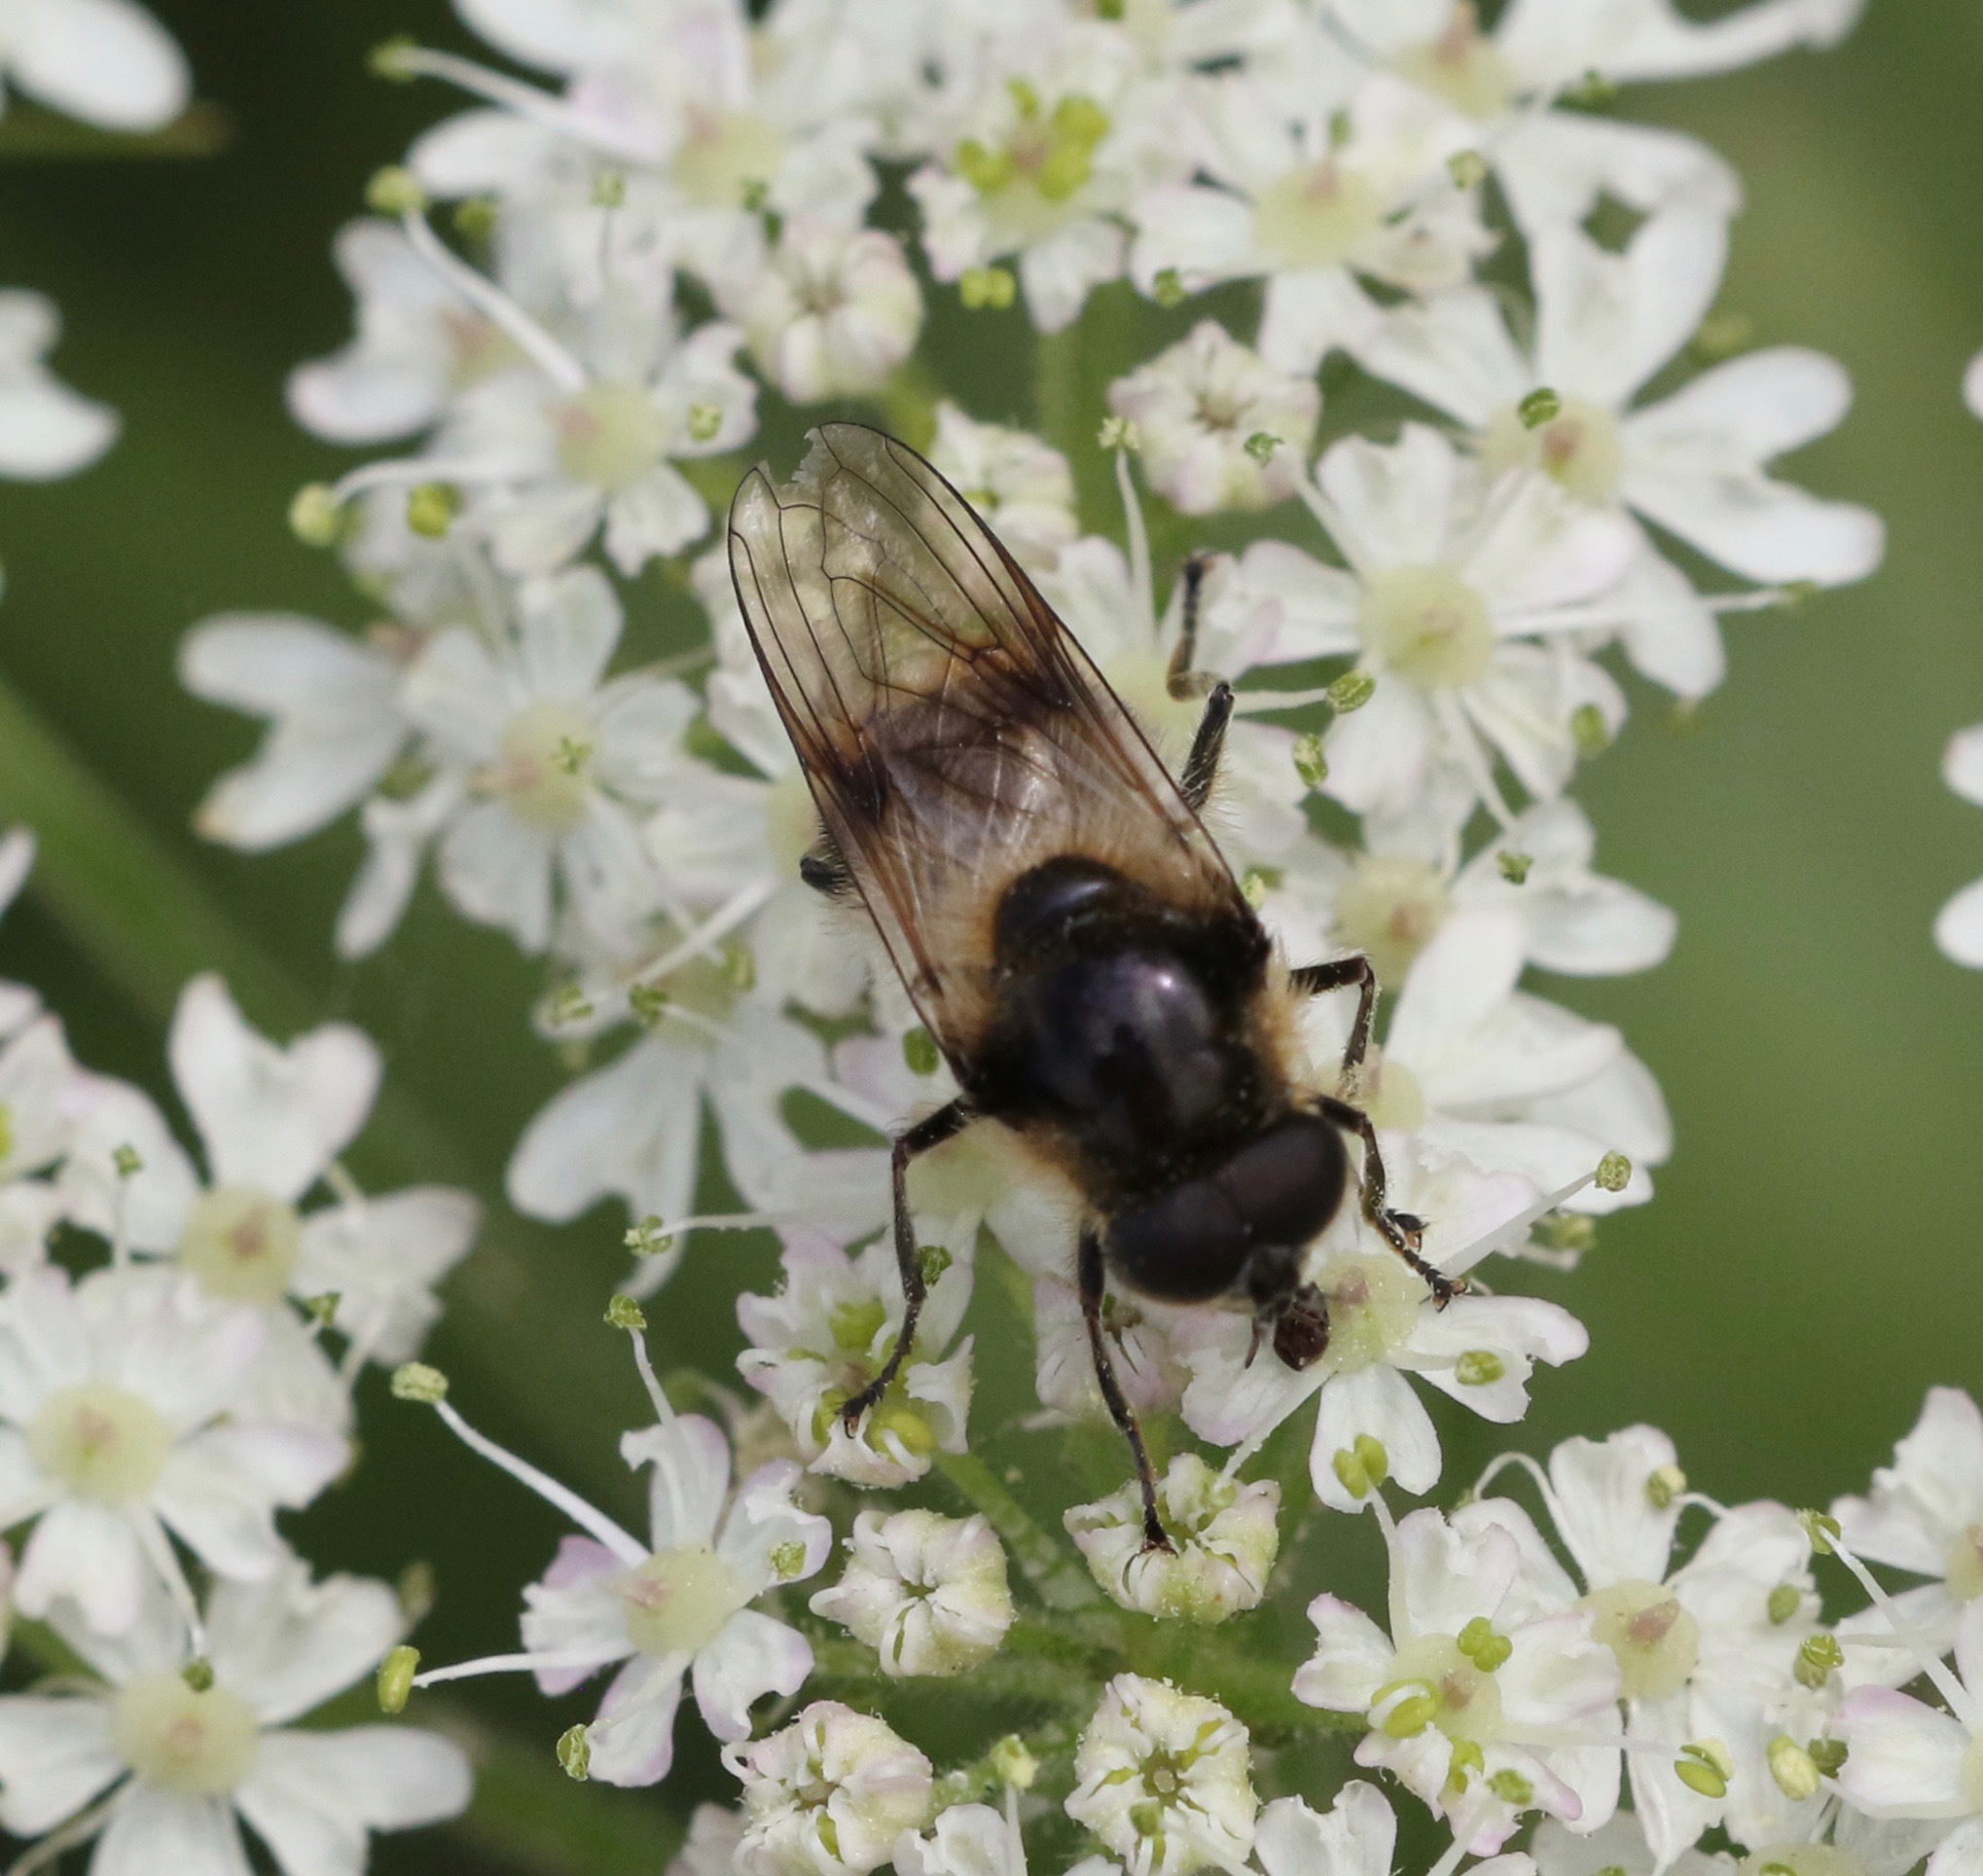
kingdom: Animalia
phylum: Arthropoda
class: Insecta
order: Diptera
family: Syrphidae
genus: Cheilosia
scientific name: Cheilosia illustrata
